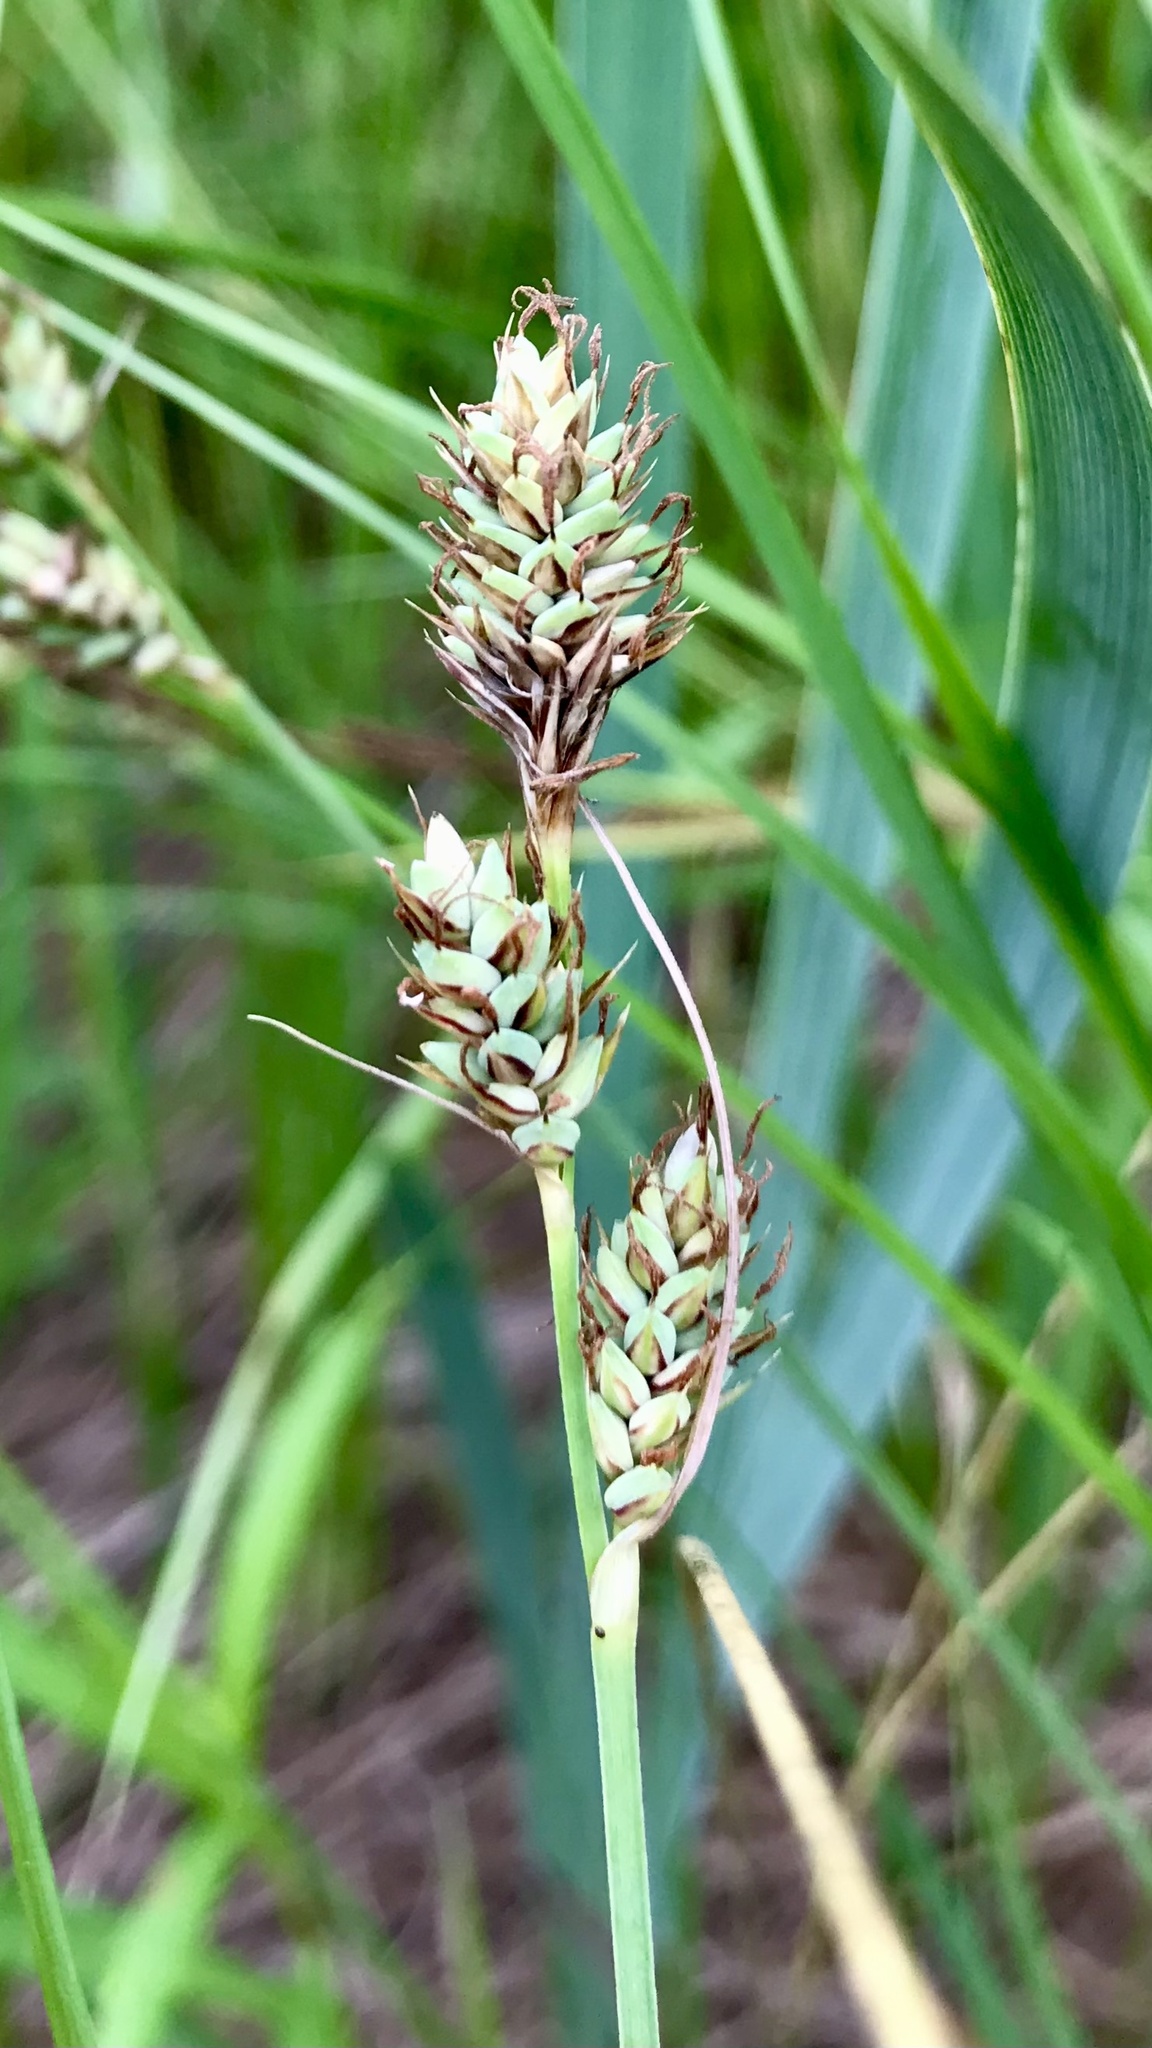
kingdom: Plantae
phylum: Tracheophyta
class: Liliopsida
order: Poales
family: Cyperaceae
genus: Carex
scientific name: Carex buxbaumii
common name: Club sedge
